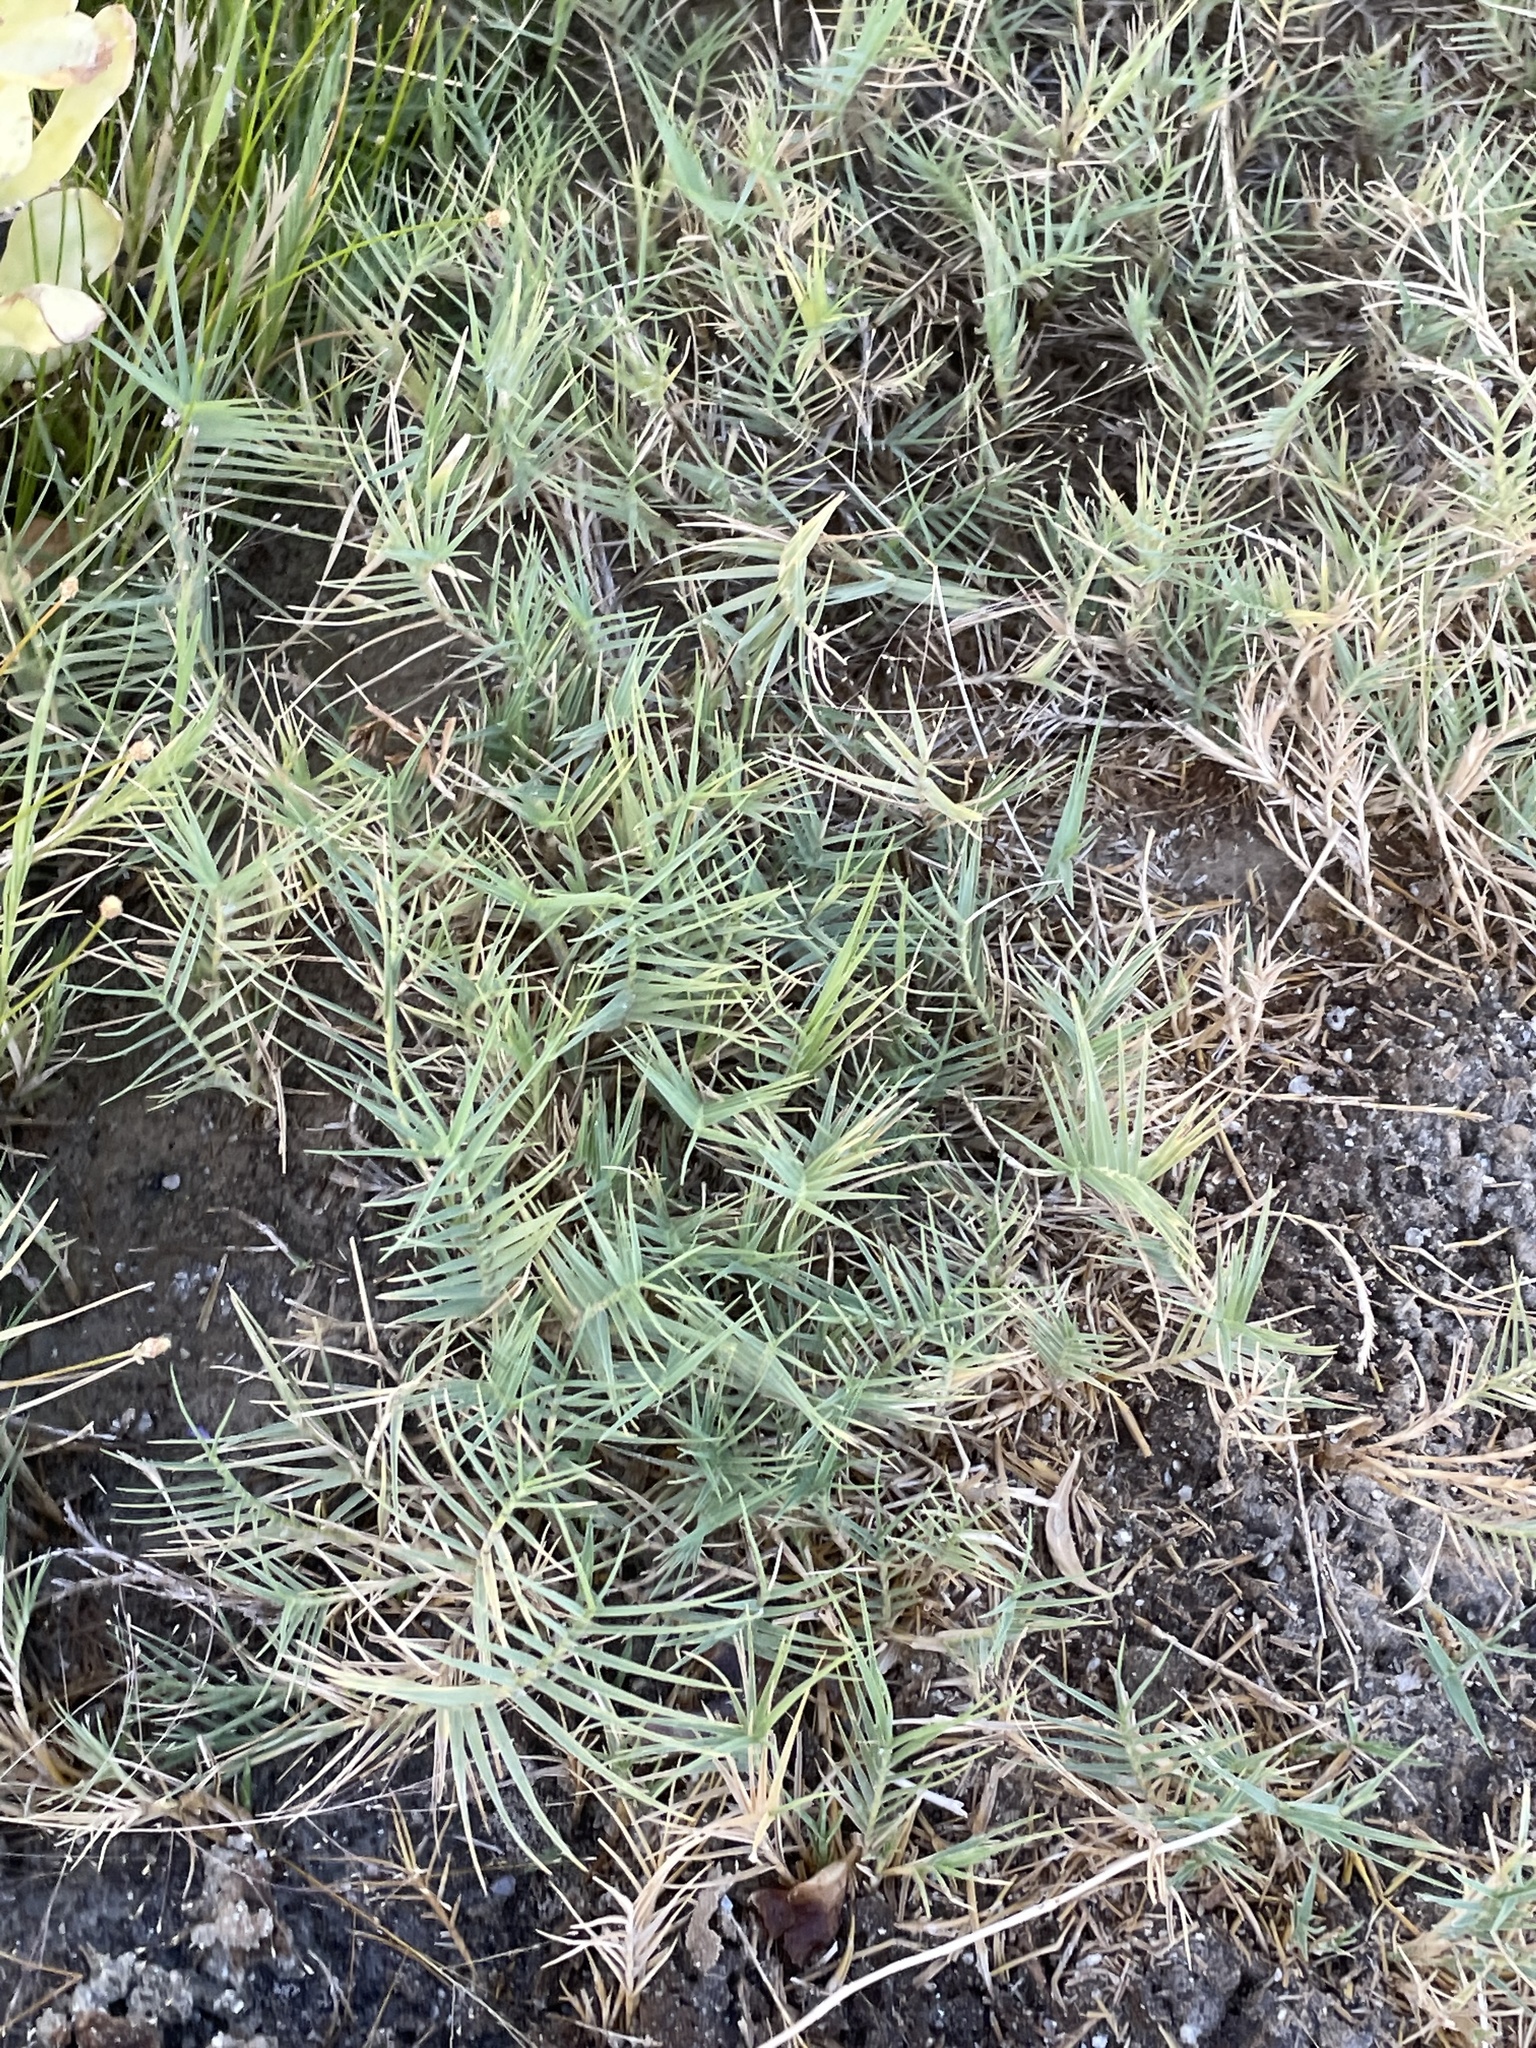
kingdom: Plantae
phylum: Tracheophyta
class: Liliopsida
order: Poales
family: Poaceae
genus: Distichlis
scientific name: Distichlis spicata
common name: Saltgrass
